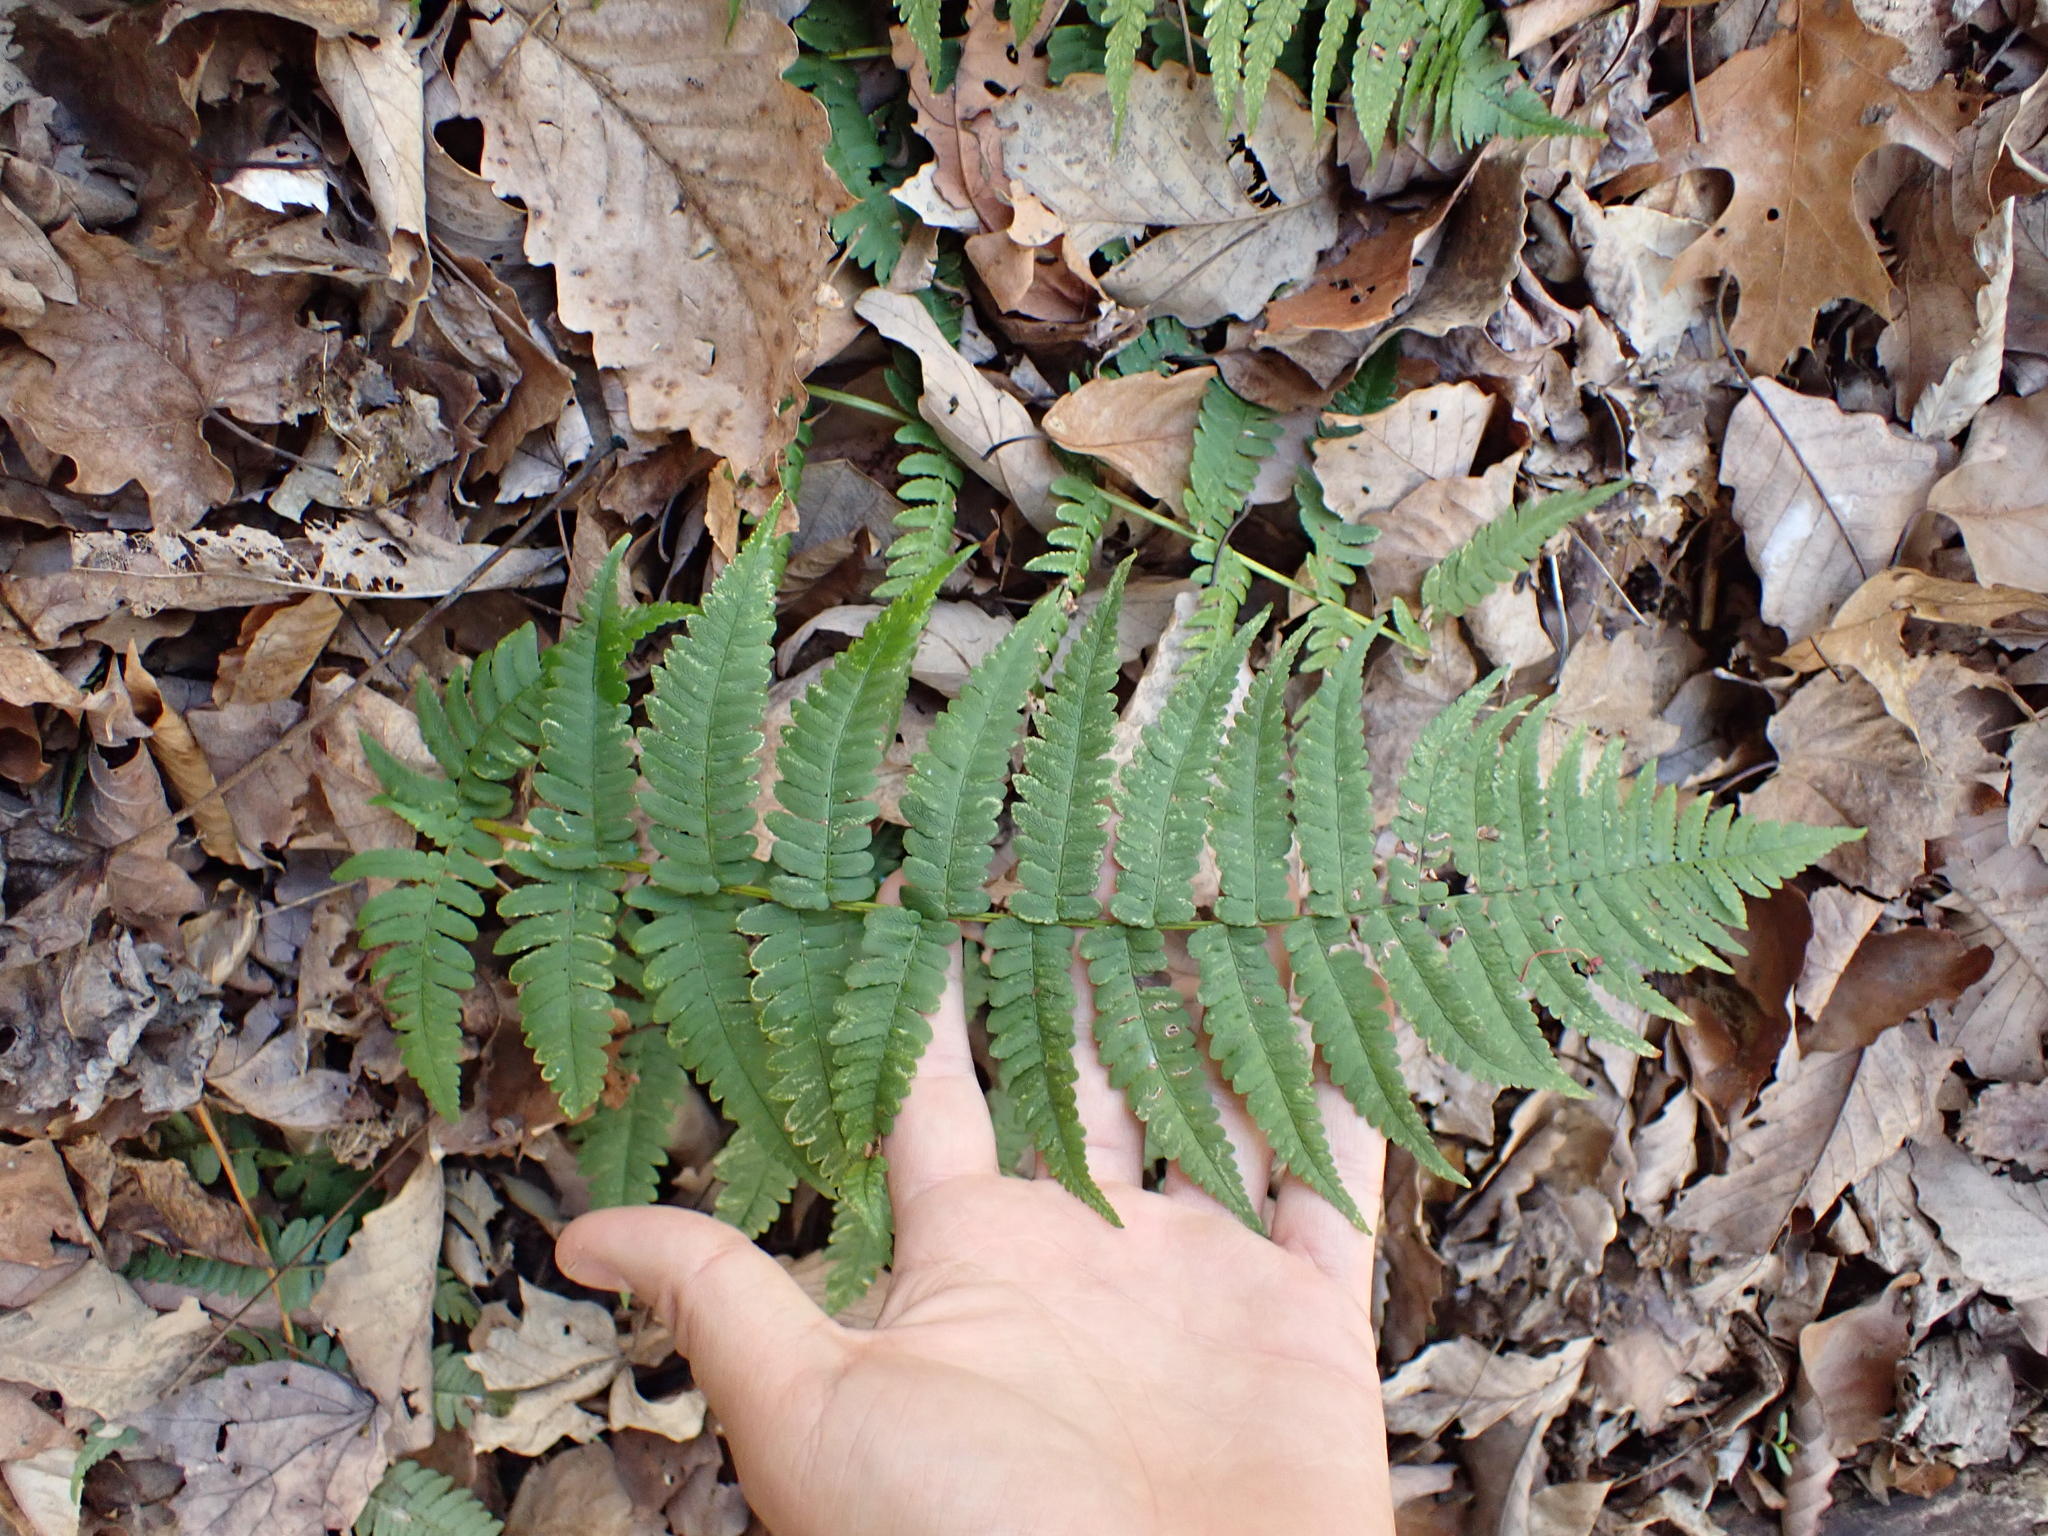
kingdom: Plantae
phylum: Tracheophyta
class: Polypodiopsida
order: Polypodiales
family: Dryopteridaceae
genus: Dryopteris
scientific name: Dryopteris marginalis
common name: Marginal wood fern
